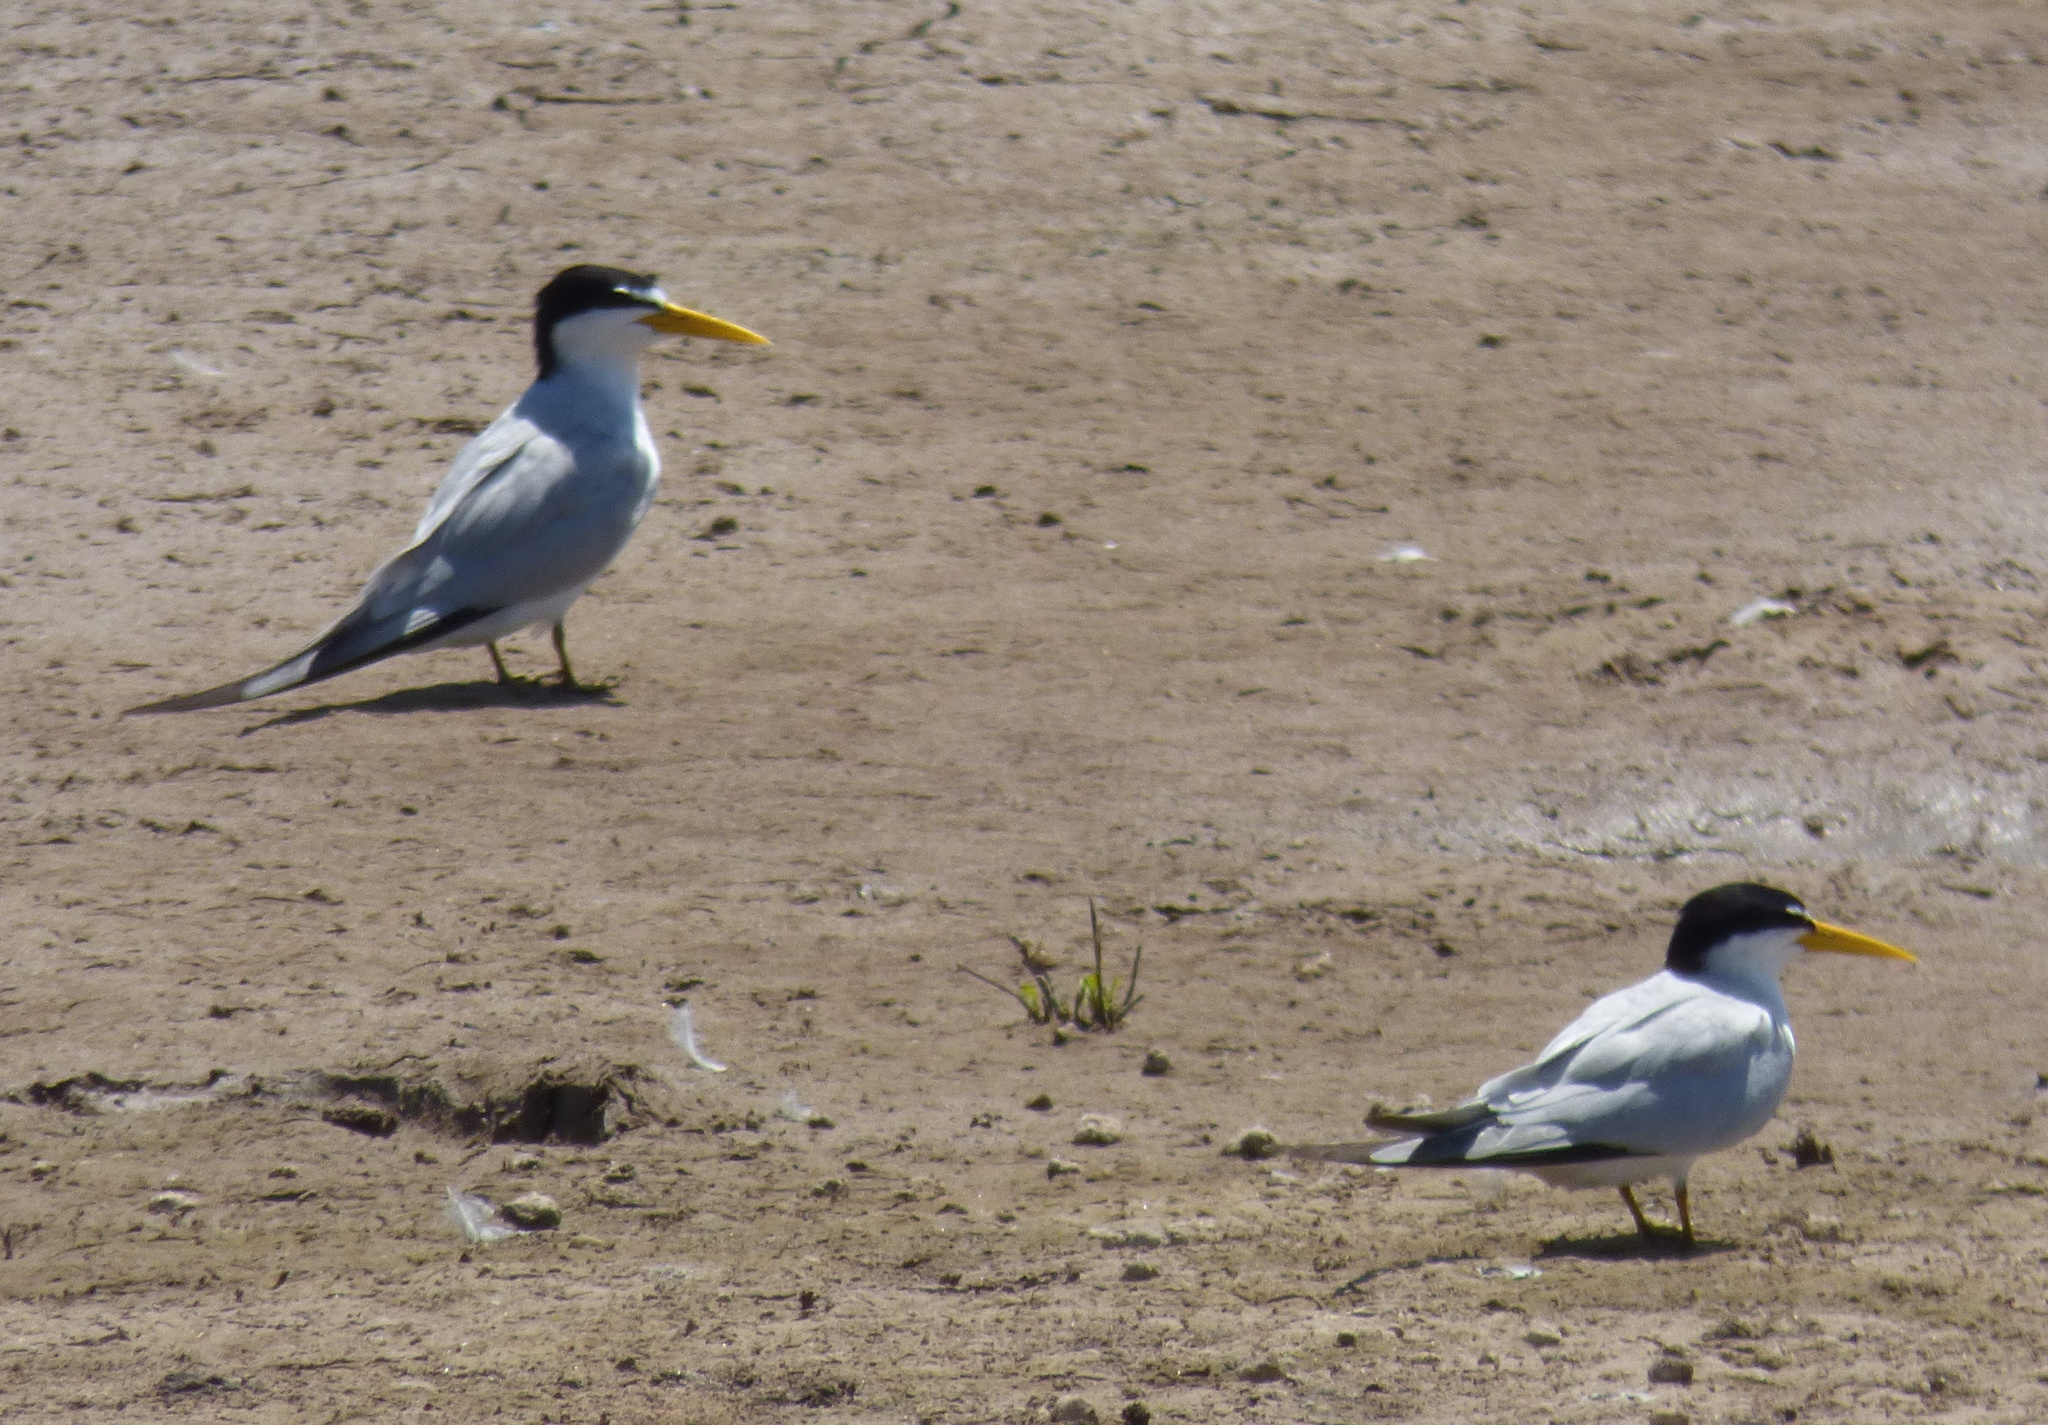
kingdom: Animalia
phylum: Chordata
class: Aves
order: Charadriiformes
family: Laridae
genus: Sternula
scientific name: Sternula superciliaris
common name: Yellow-billed tern
